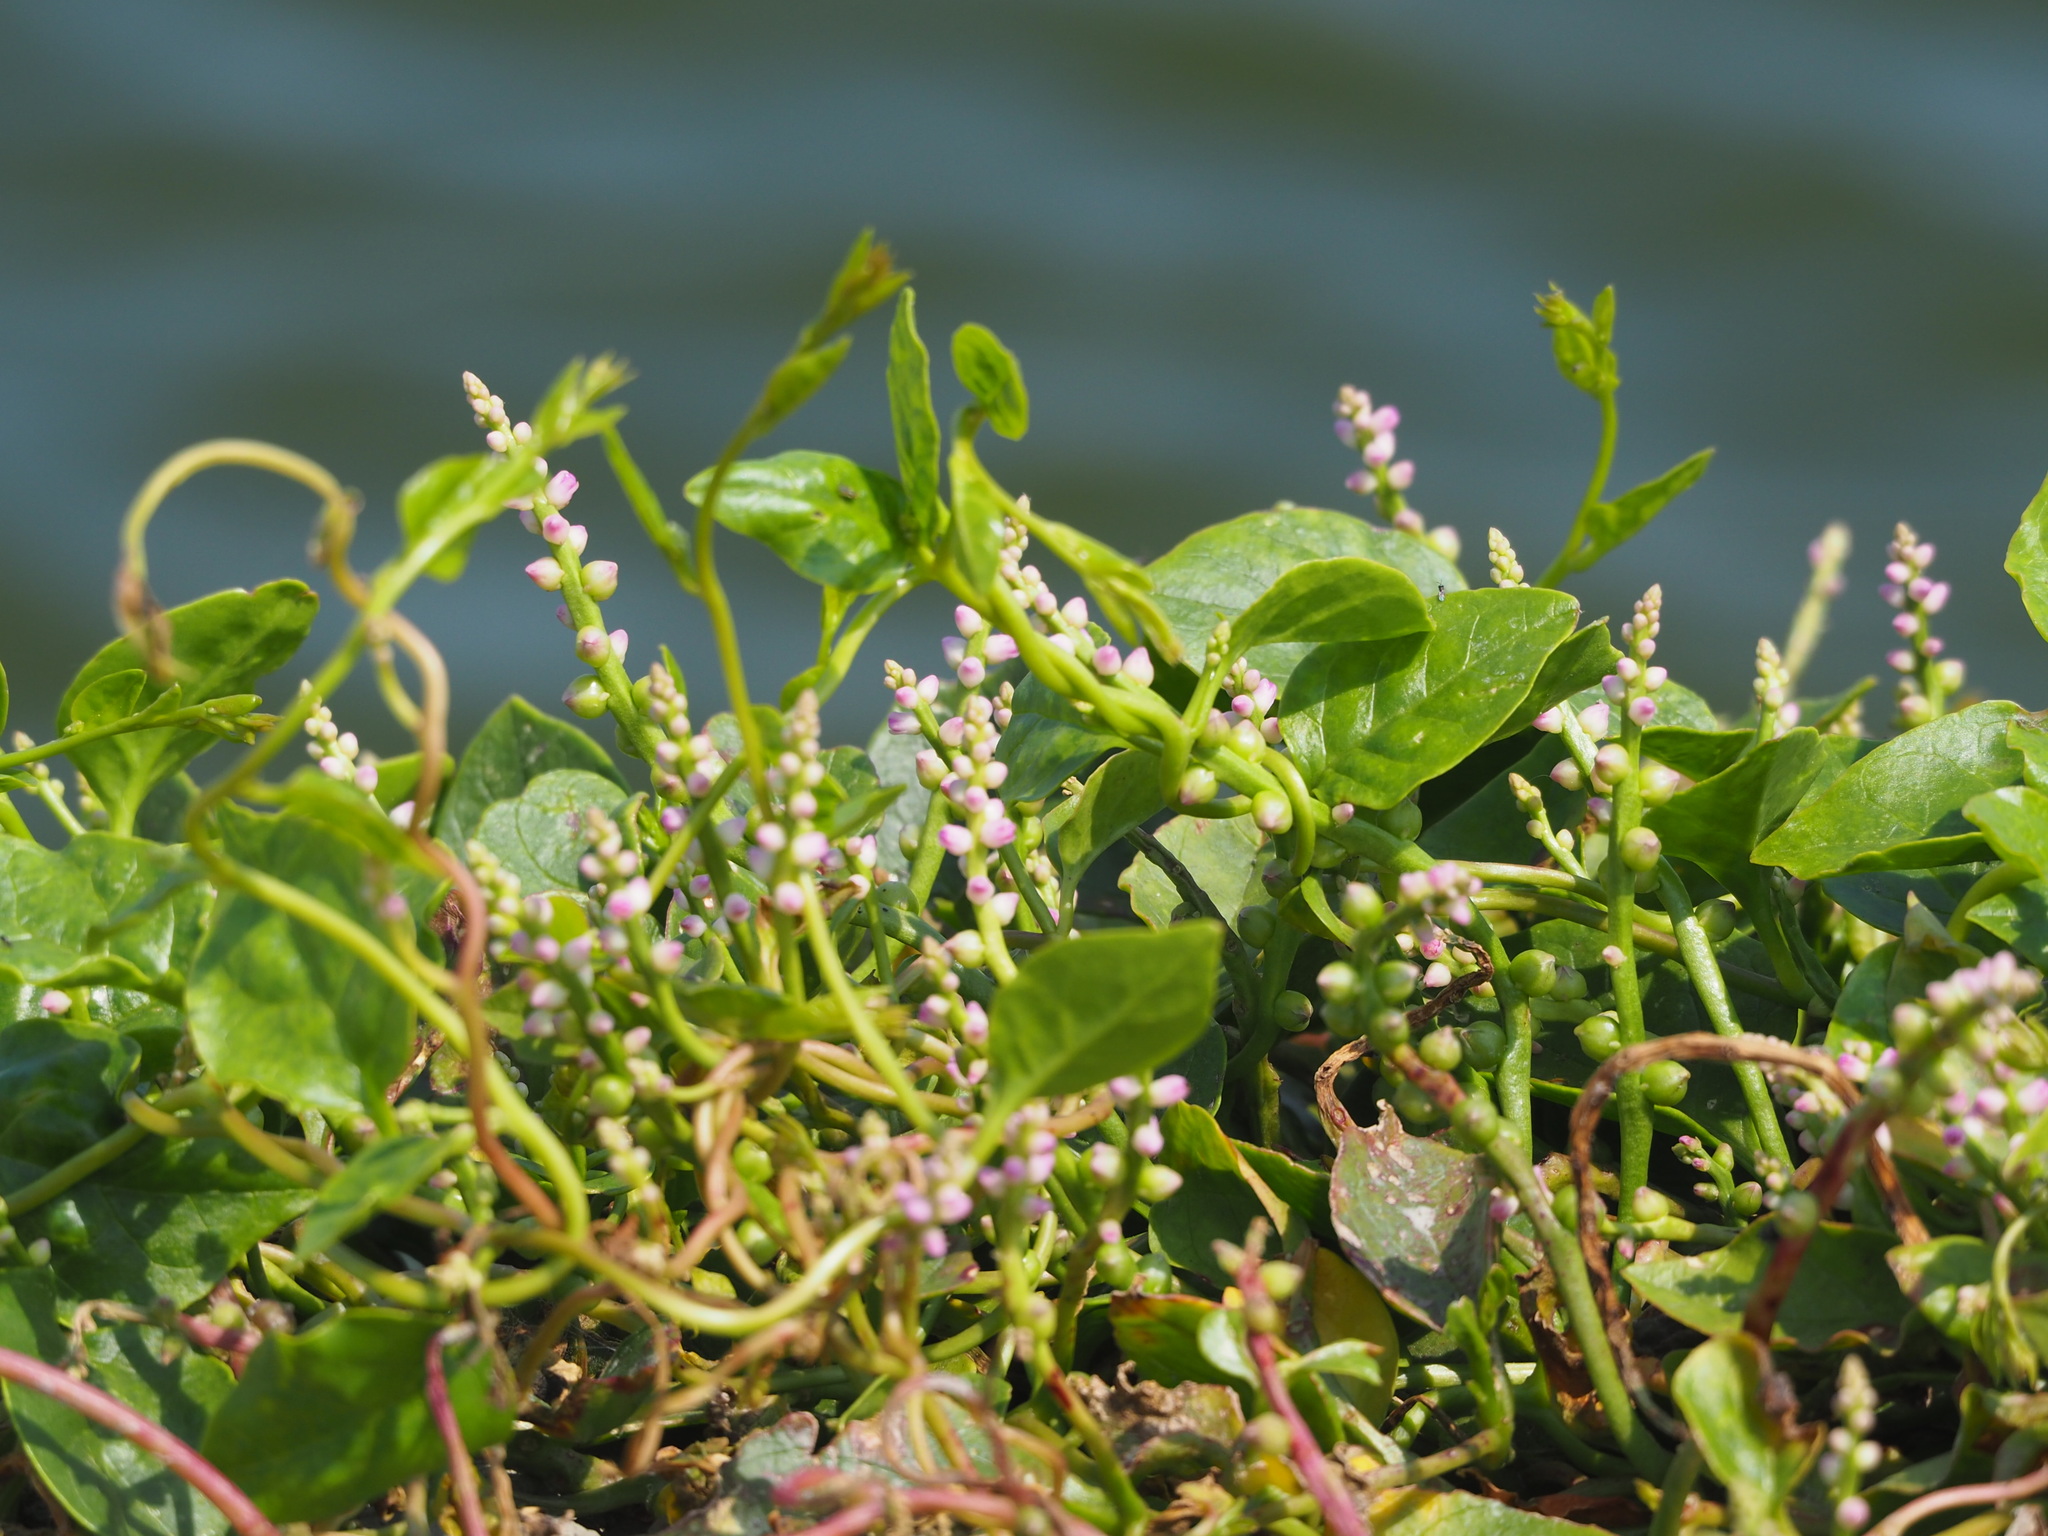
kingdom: Plantae
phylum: Tracheophyta
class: Magnoliopsida
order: Caryophyllales
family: Basellaceae
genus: Basella
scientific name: Basella alba
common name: Indian spinach
